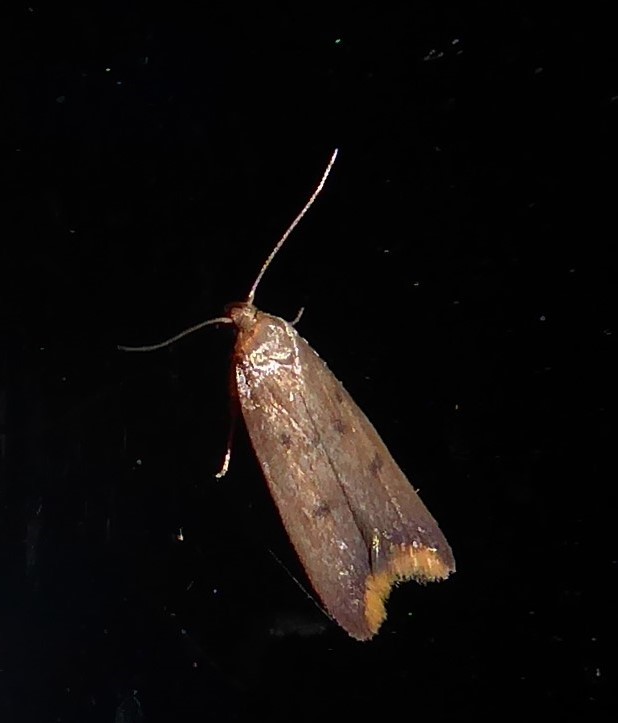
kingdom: Animalia
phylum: Arthropoda
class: Insecta
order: Lepidoptera
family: Oecophoridae
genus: Tachystola
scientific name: Tachystola acroxantha
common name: Ruddy streak
